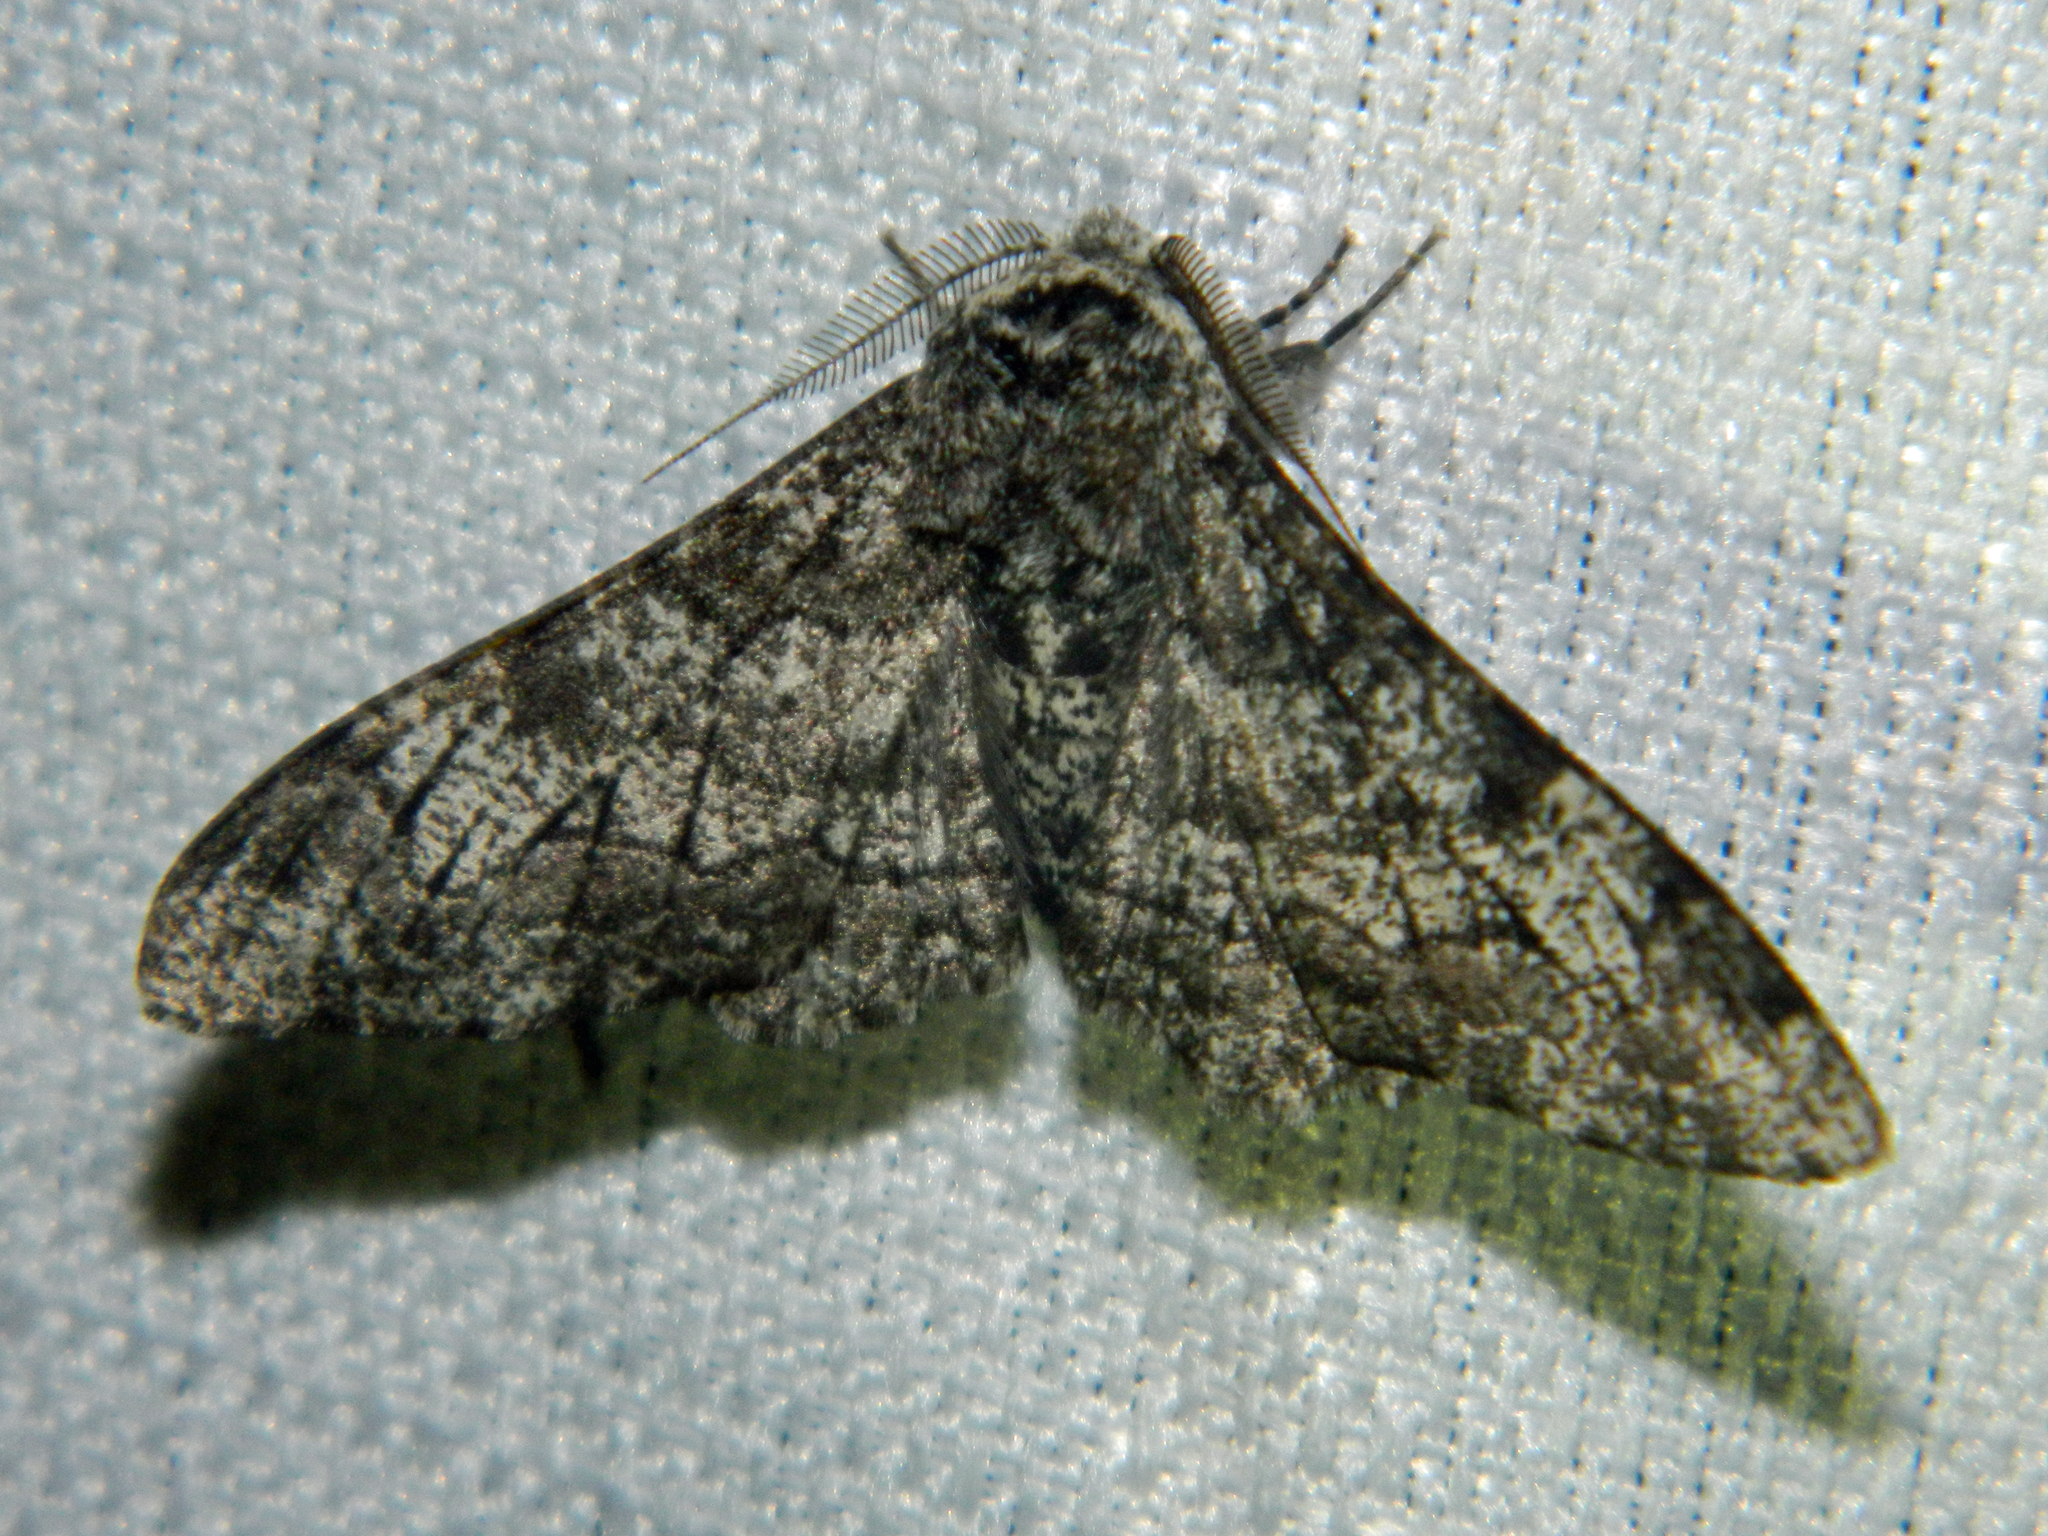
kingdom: Animalia
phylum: Arthropoda
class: Insecta
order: Lepidoptera
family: Geometridae
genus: Biston
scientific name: Biston betularia
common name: Peppered moth
